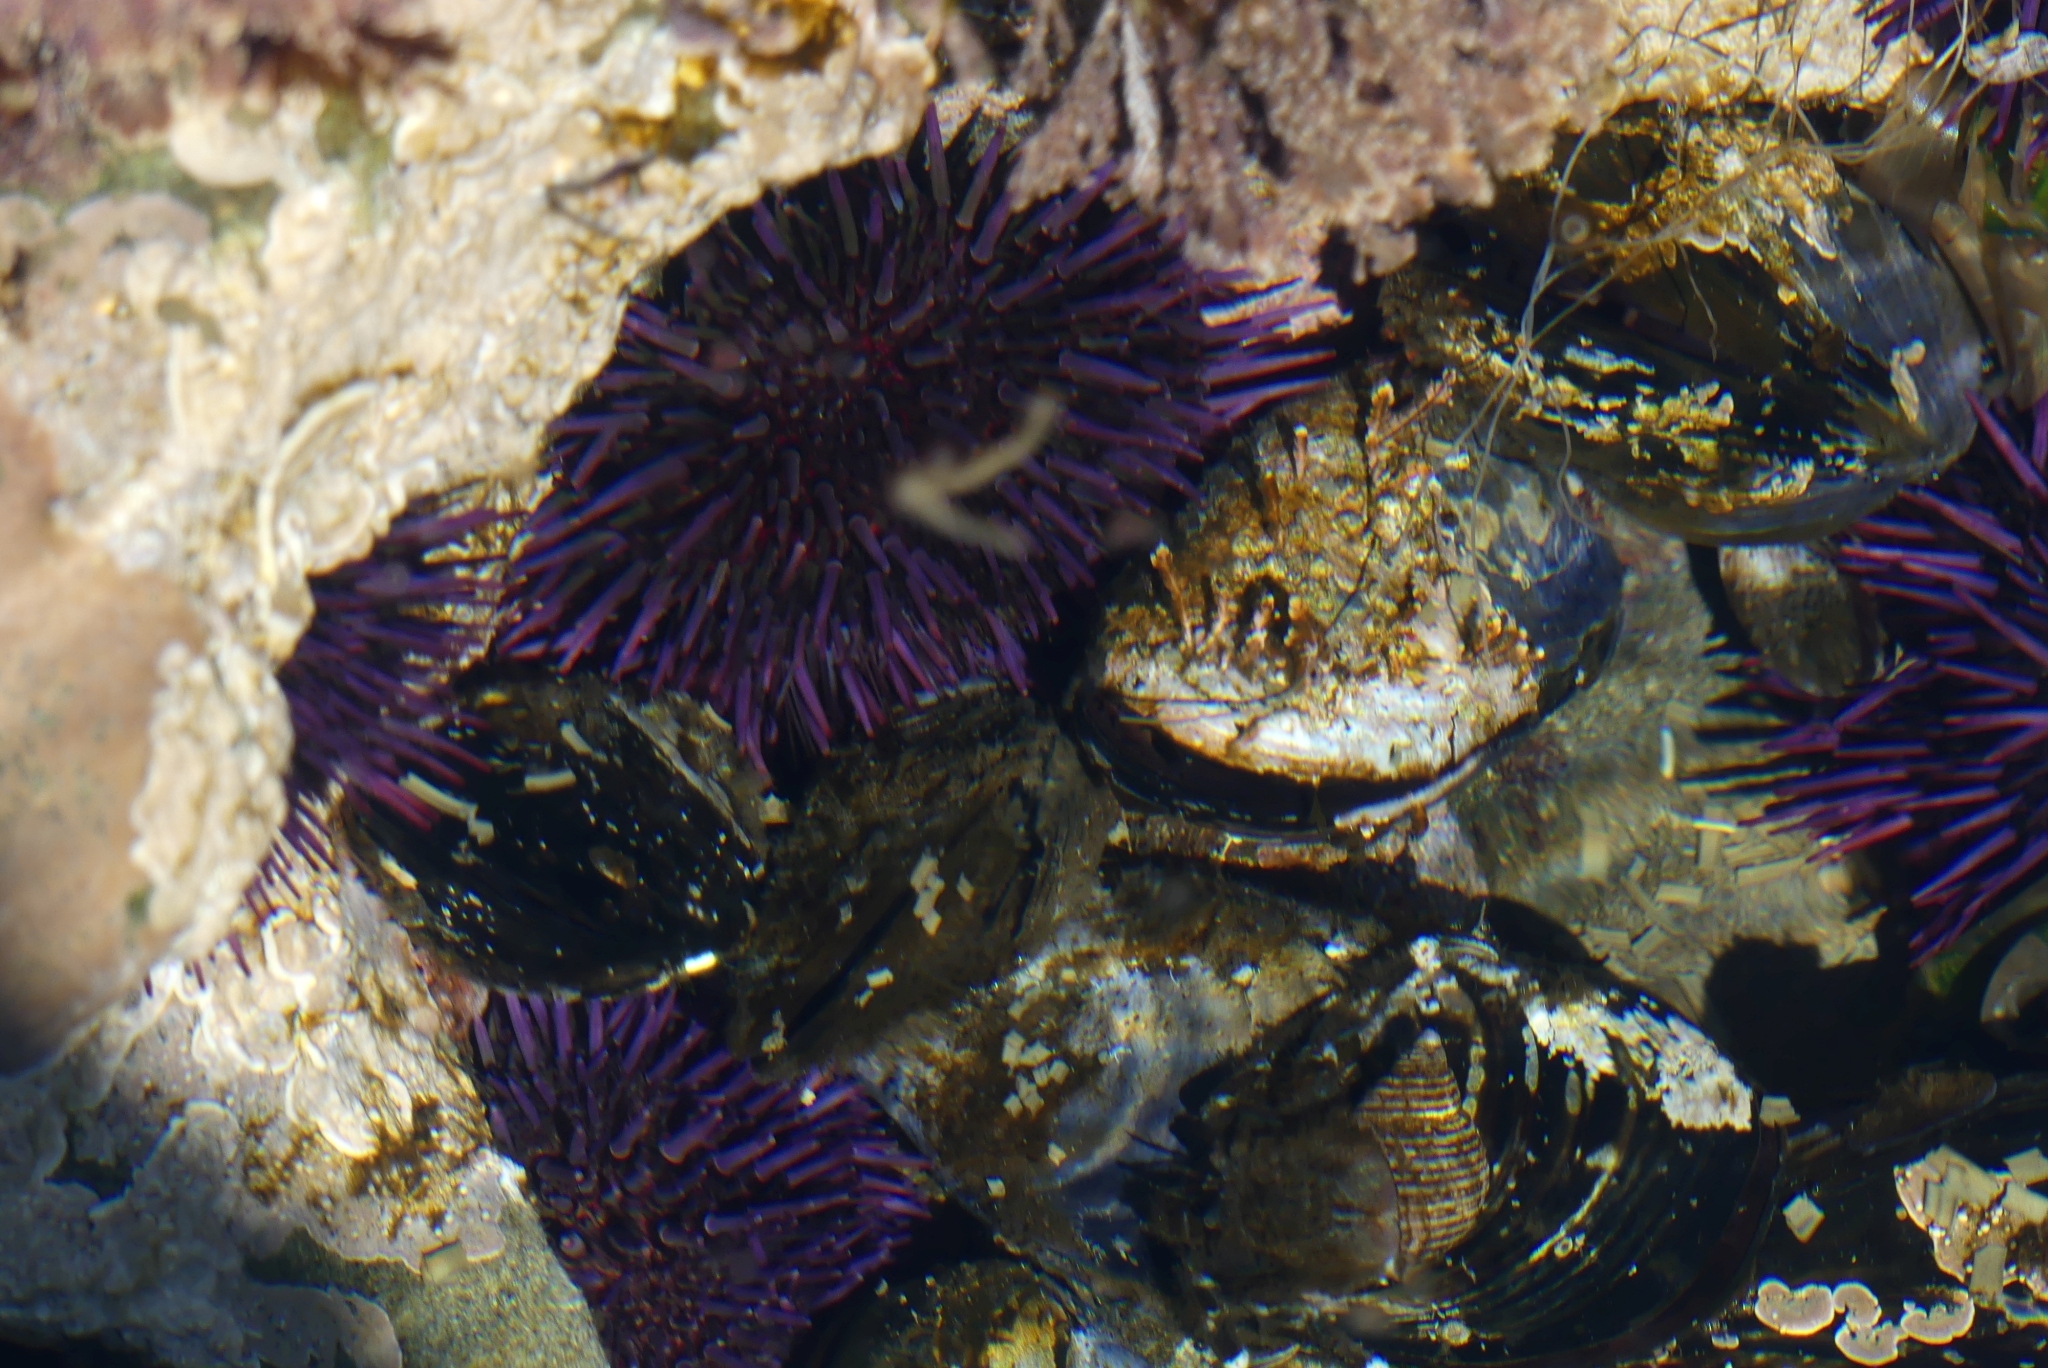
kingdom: Animalia
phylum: Echinodermata
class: Echinoidea
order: Camarodonta
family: Strongylocentrotidae
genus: Strongylocentrotus
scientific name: Strongylocentrotus purpuratus
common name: Purple sea urchin
